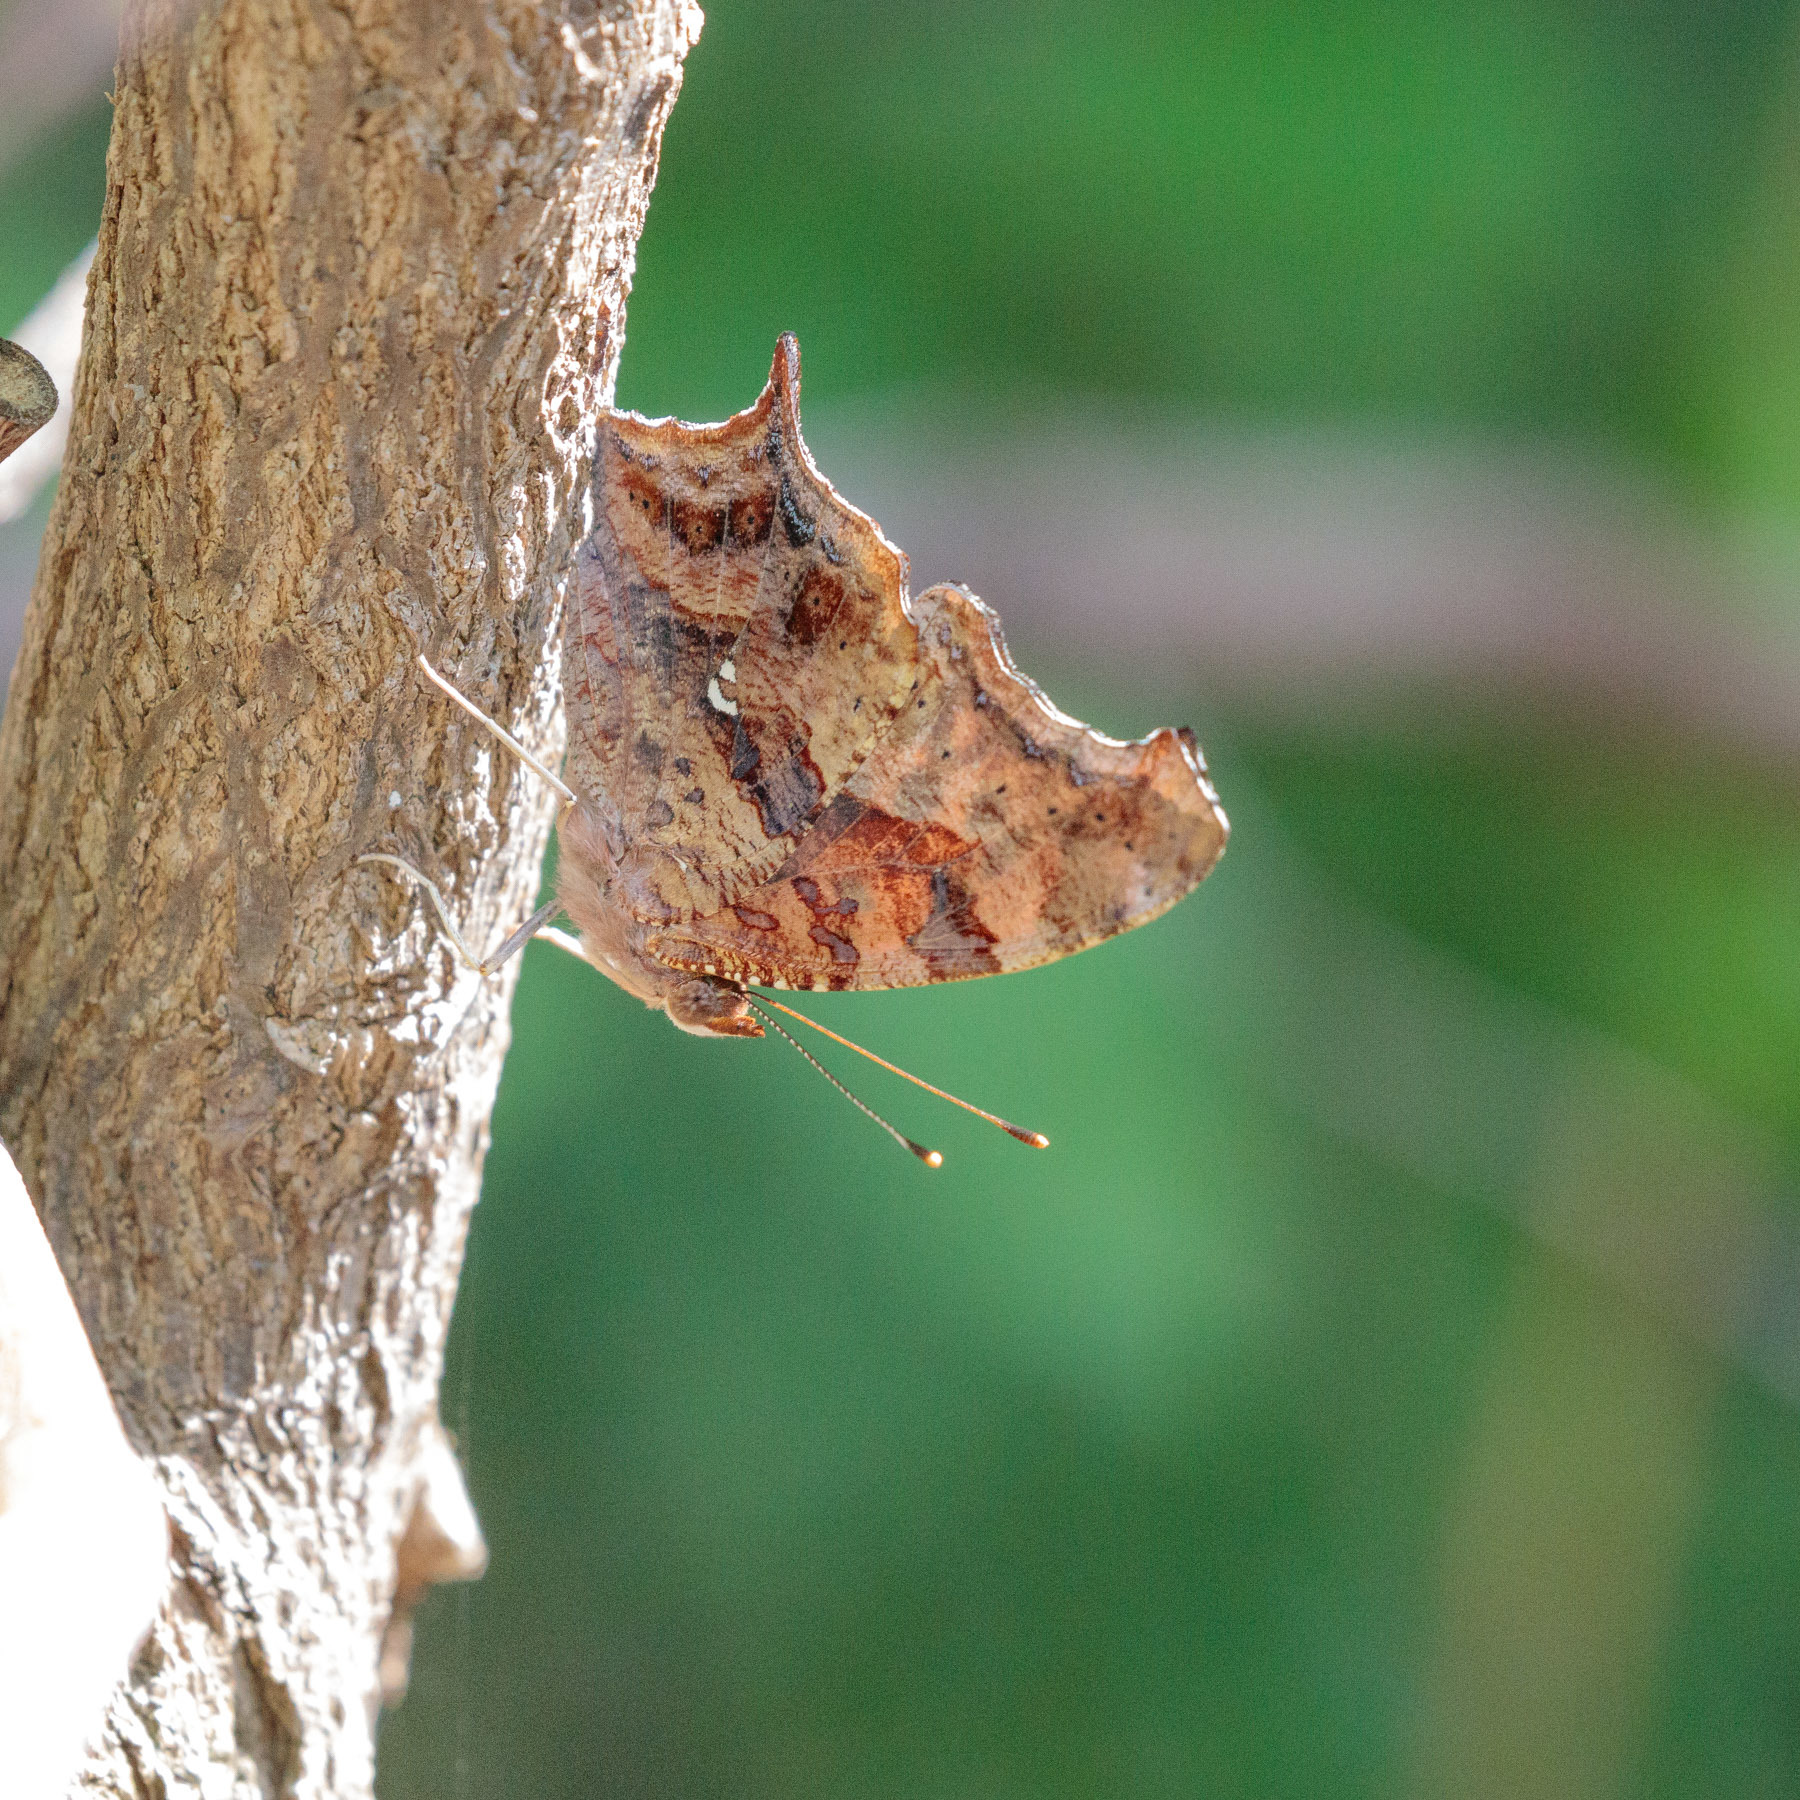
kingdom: Animalia
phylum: Arthropoda
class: Insecta
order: Lepidoptera
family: Nymphalidae
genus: Polygonia
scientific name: Polygonia interrogationis
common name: Question mark
